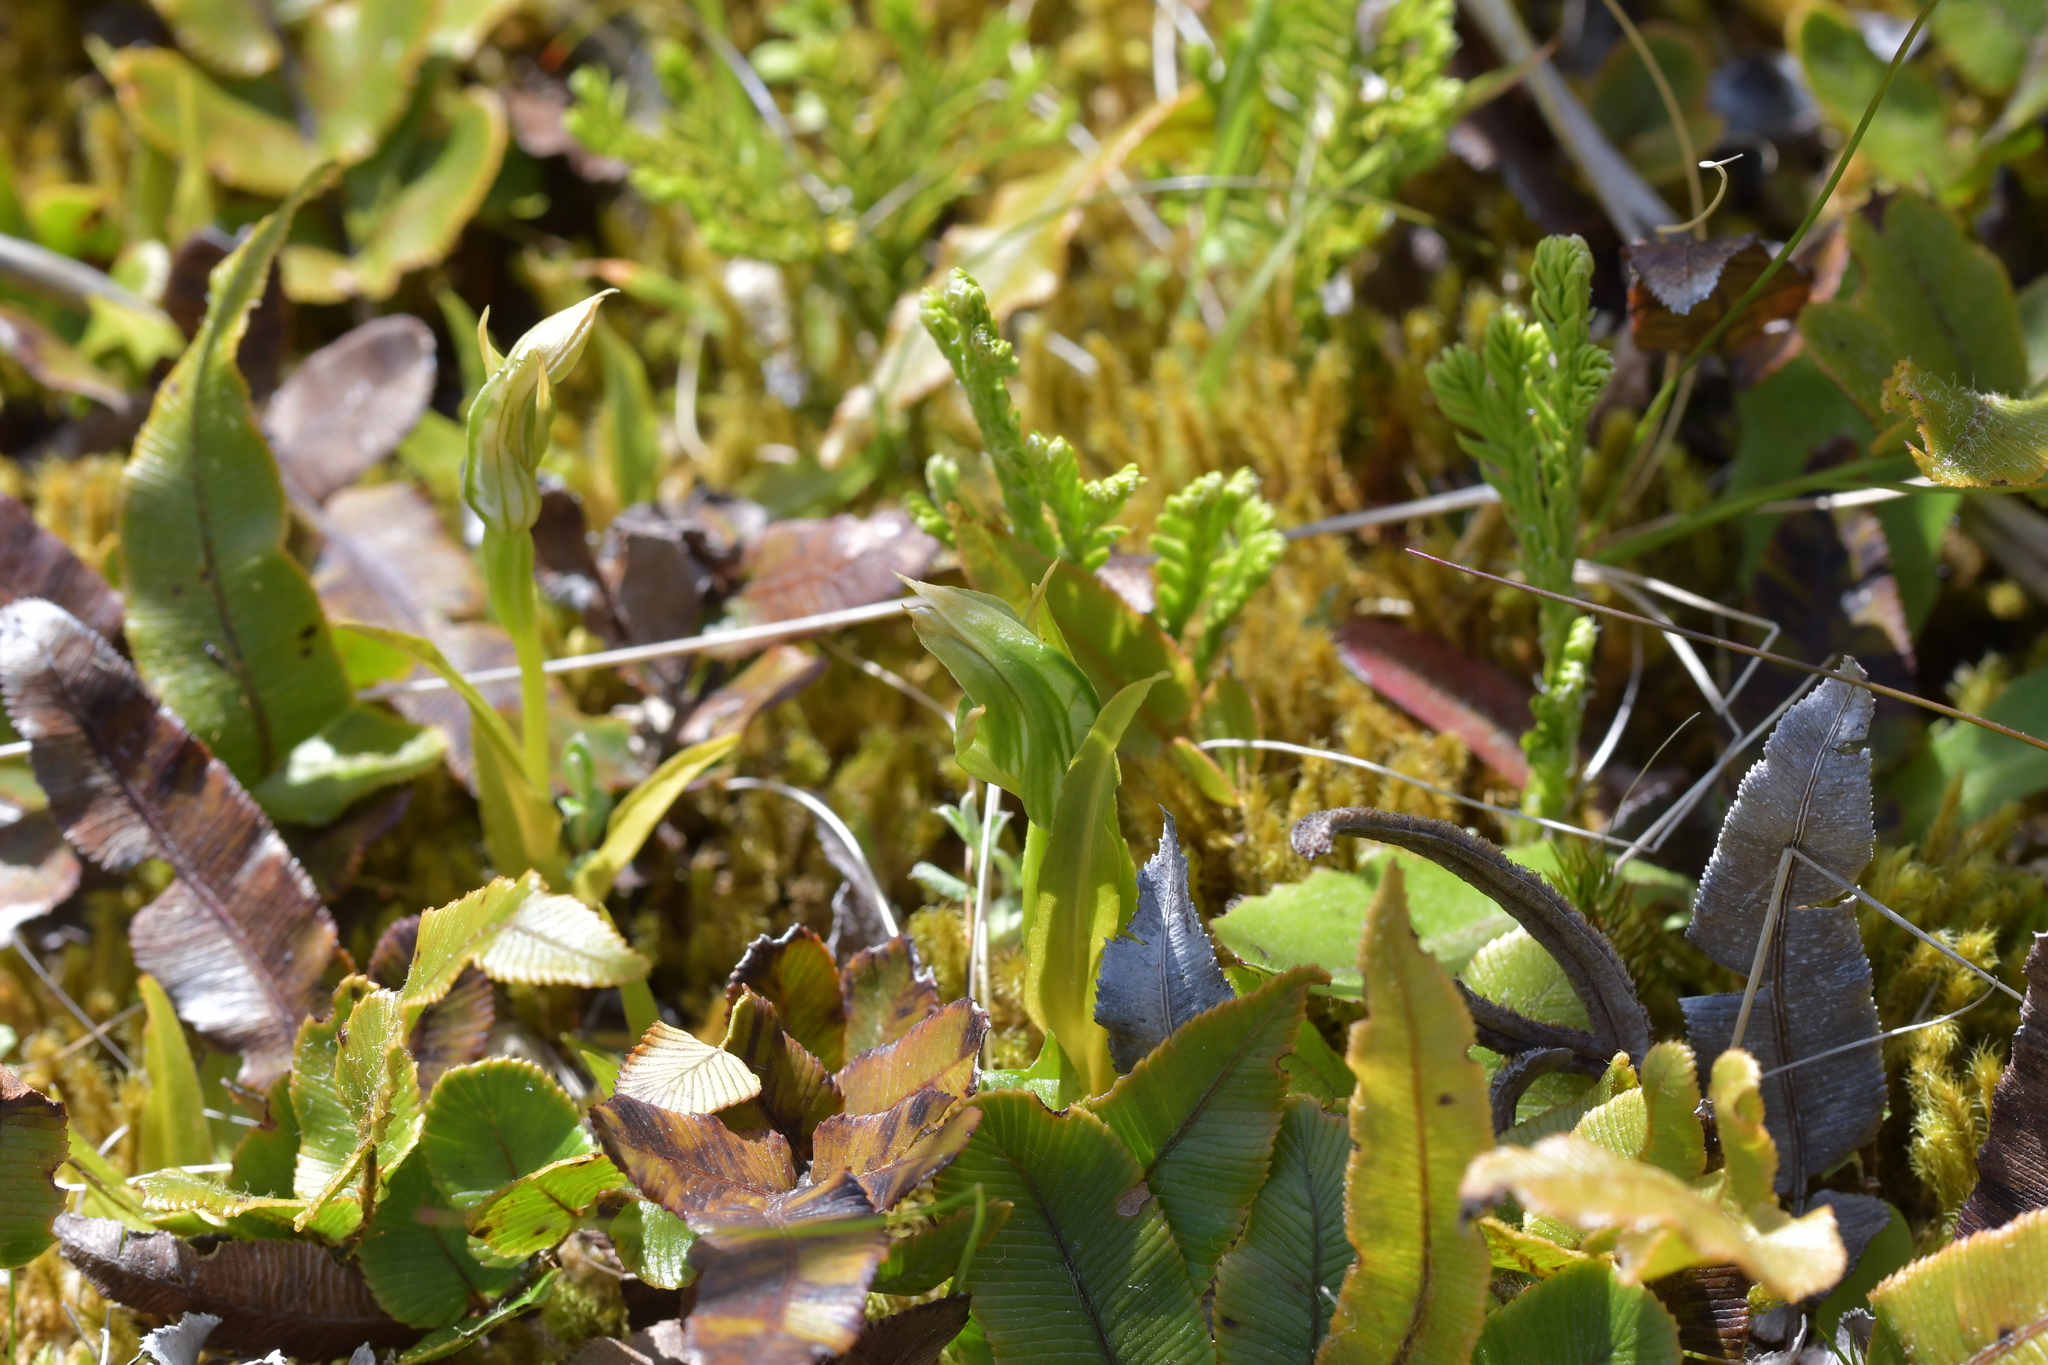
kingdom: Plantae
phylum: Tracheophyta
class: Liliopsida
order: Asparagales
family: Orchidaceae
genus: Pterostylis
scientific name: Pterostylis montana
